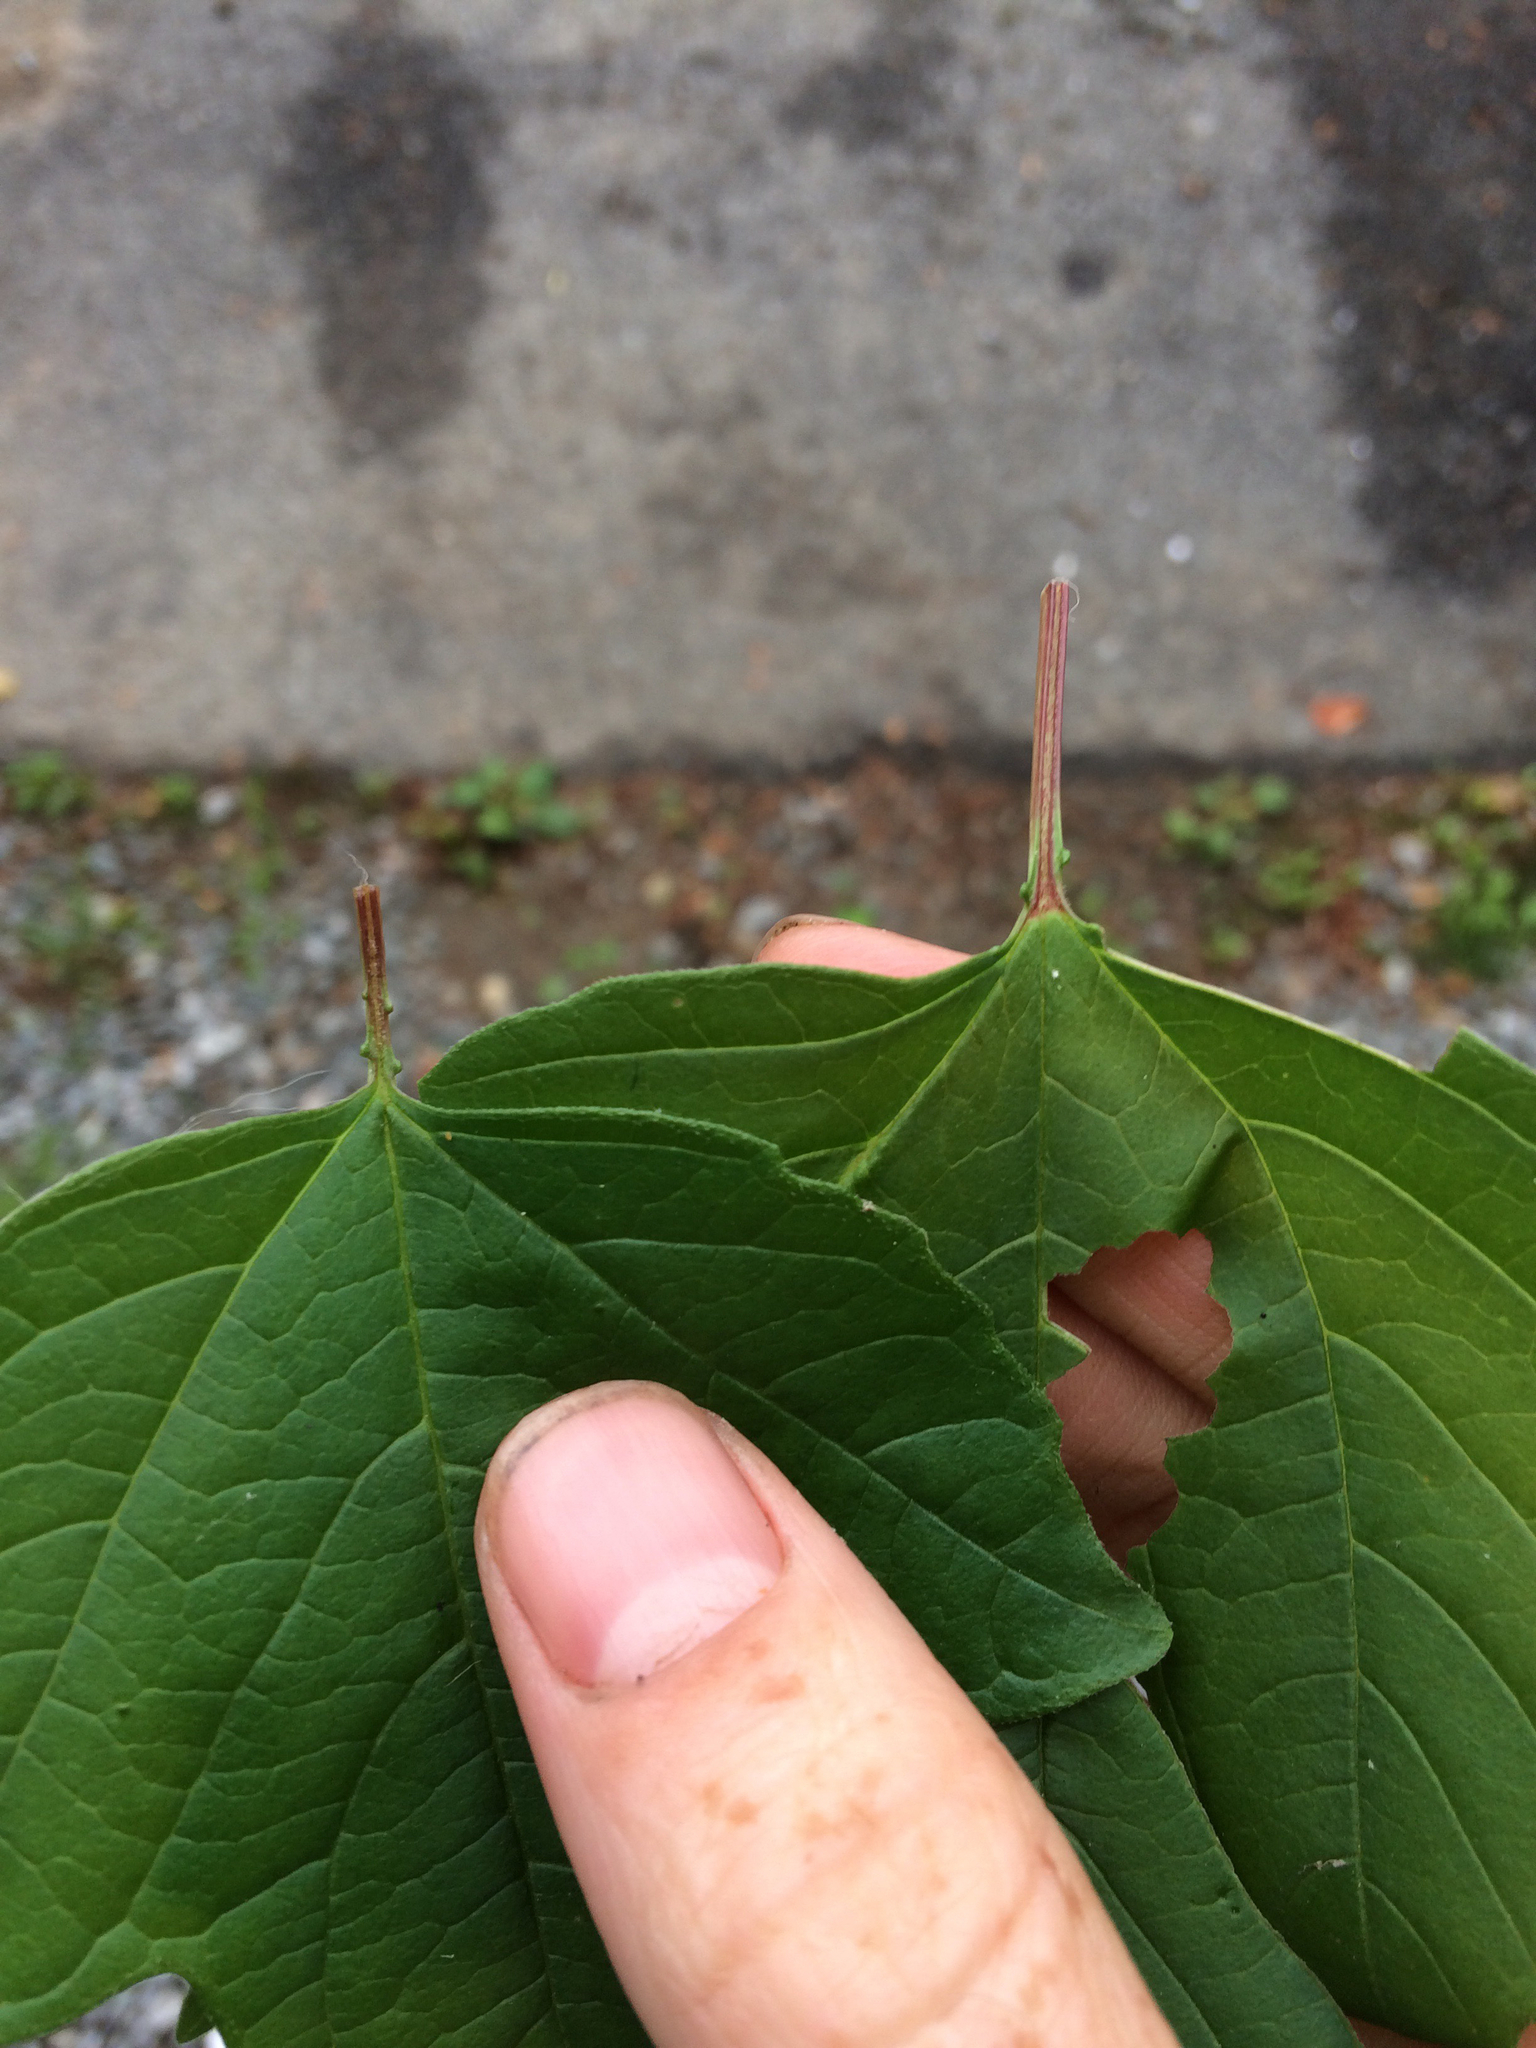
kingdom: Plantae
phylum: Tracheophyta
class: Magnoliopsida
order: Dipsacales
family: Viburnaceae
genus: Viburnum
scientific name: Viburnum opulus
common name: Guelder-rose
